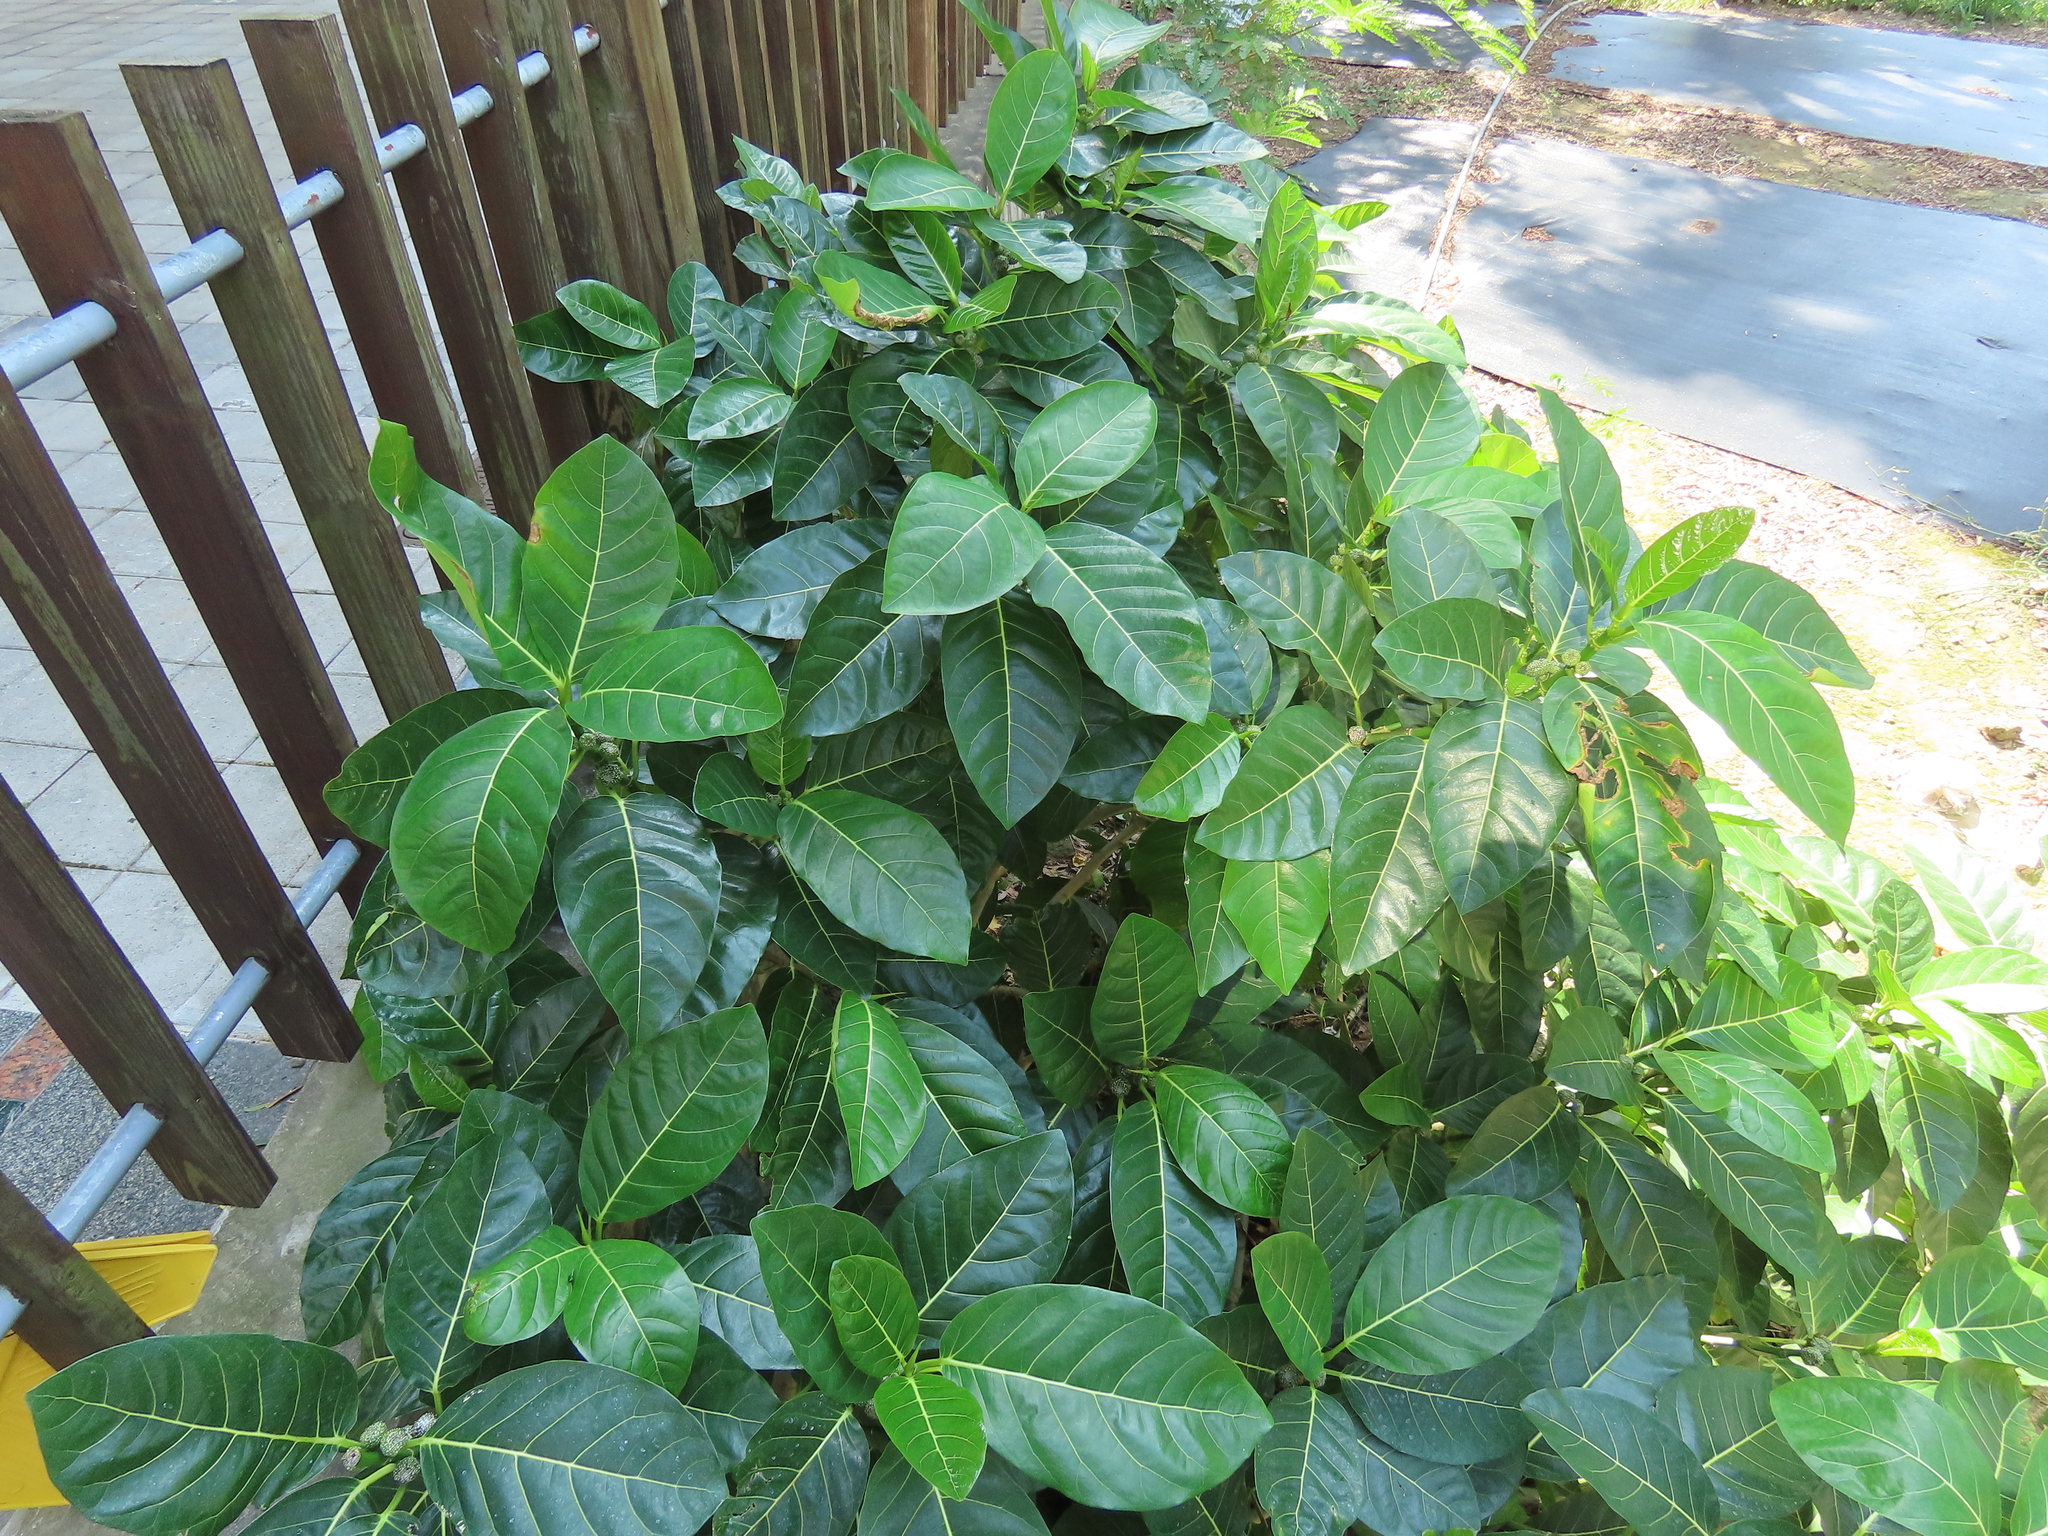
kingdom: Plantae
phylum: Tracheophyta
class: Magnoliopsida
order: Rosales
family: Moraceae
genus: Ficus
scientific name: Ficus septica
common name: Septic fig
